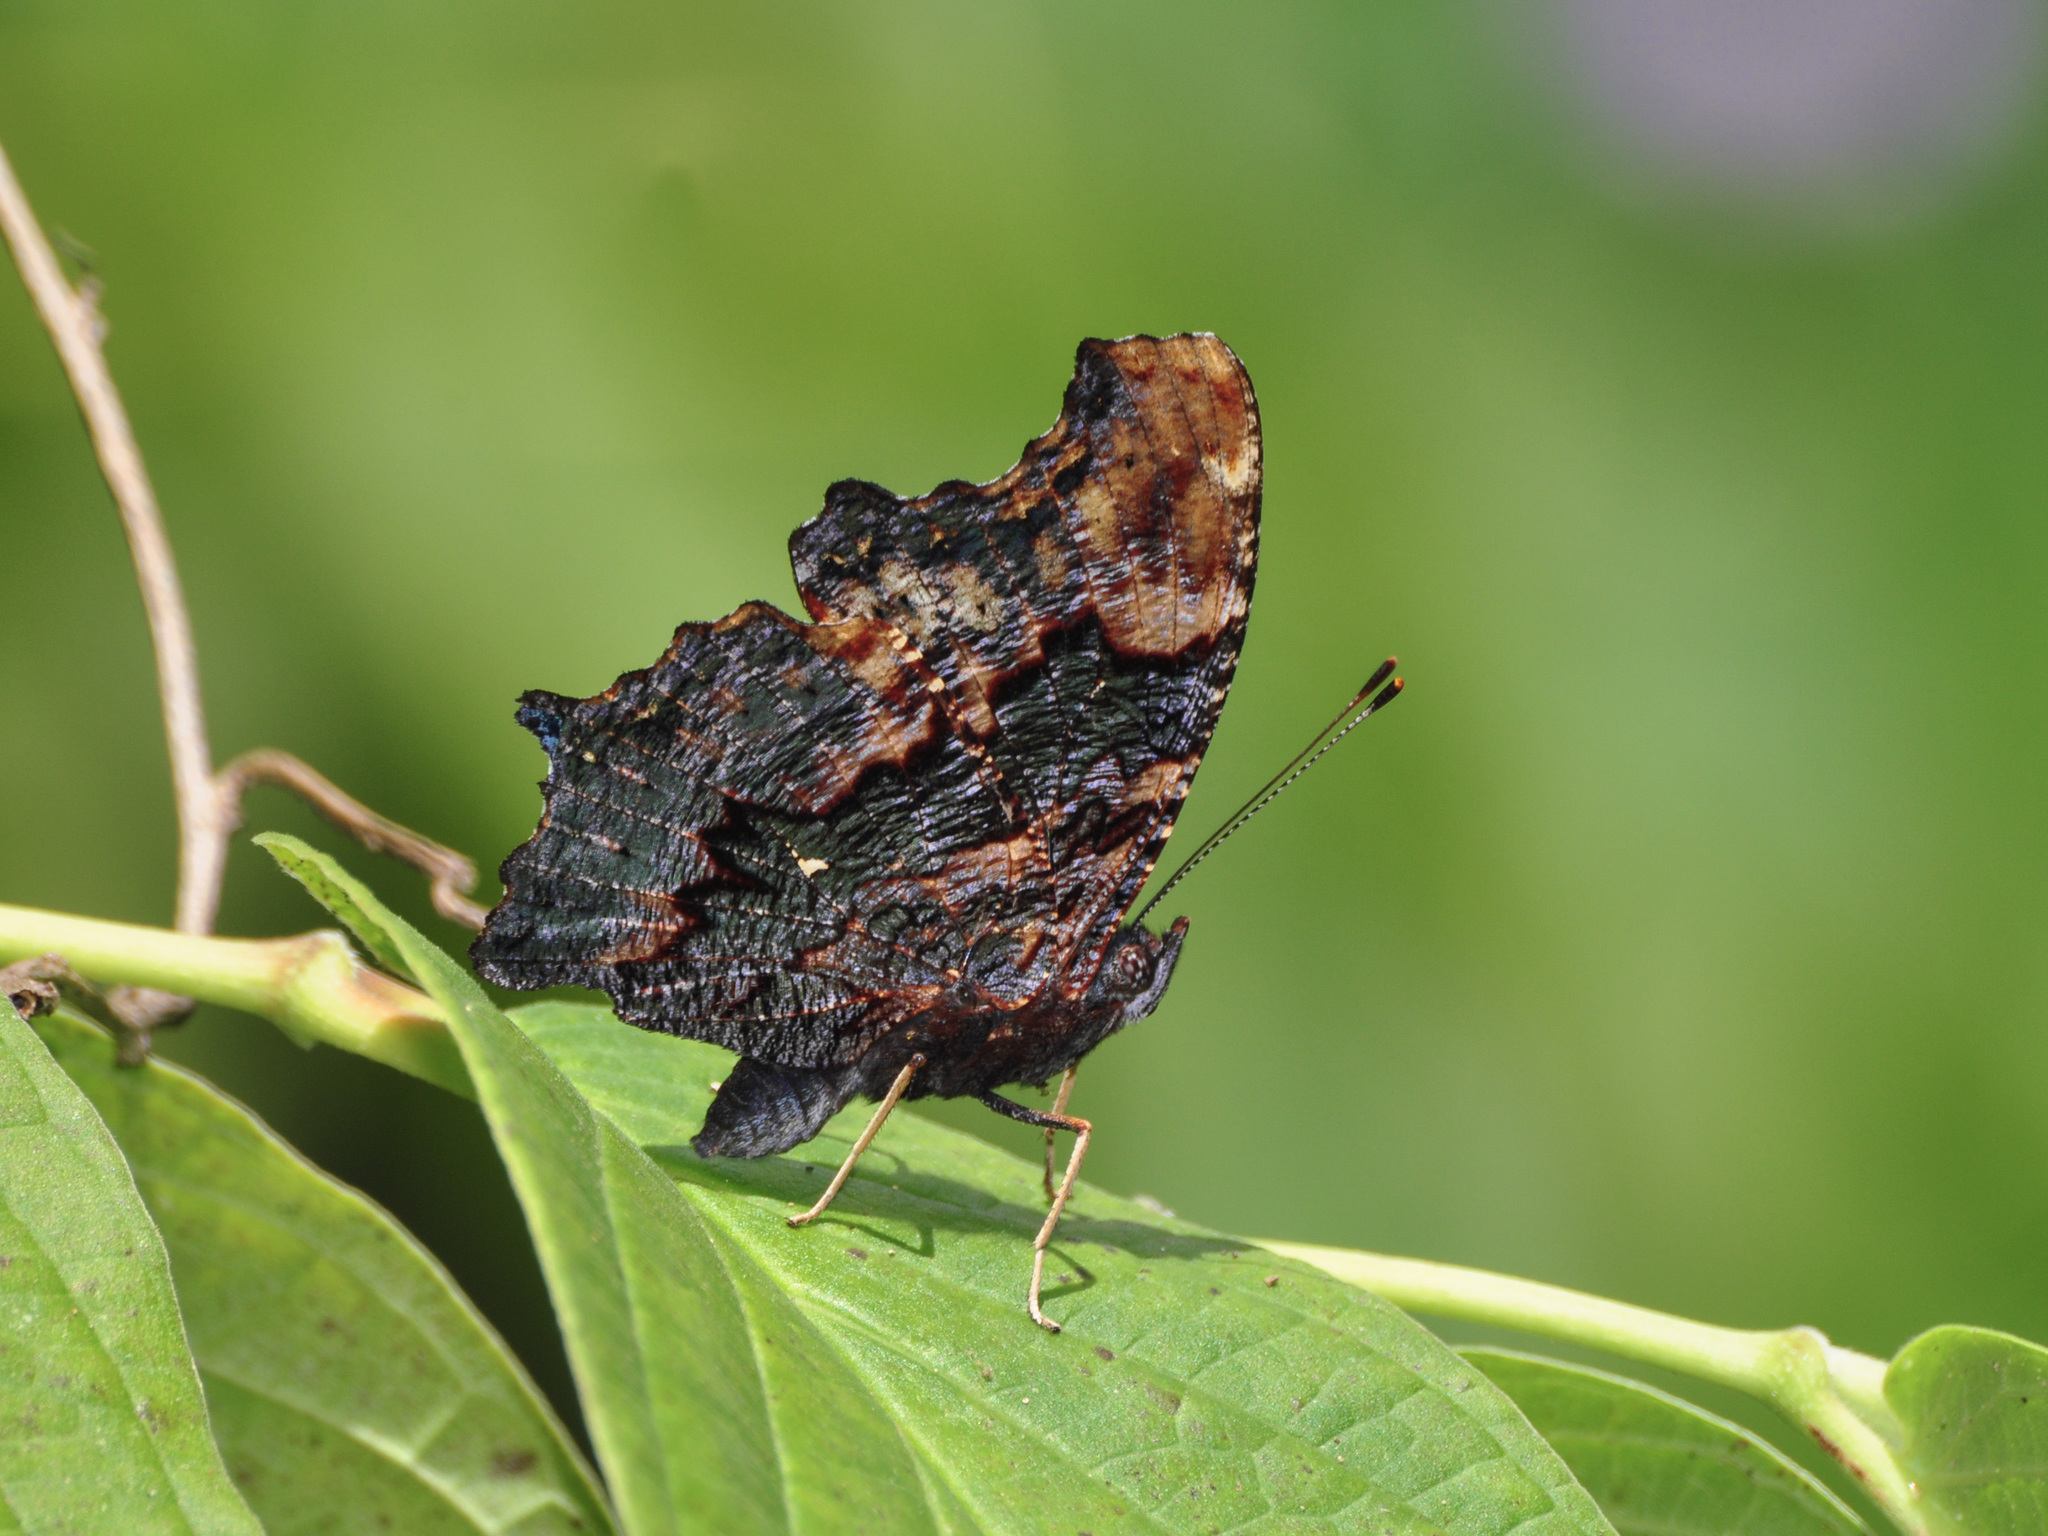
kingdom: Animalia
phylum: Arthropoda
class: Insecta
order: Lepidoptera
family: Nymphalidae
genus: Vanessa
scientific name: Vanessa Kaniska canace
